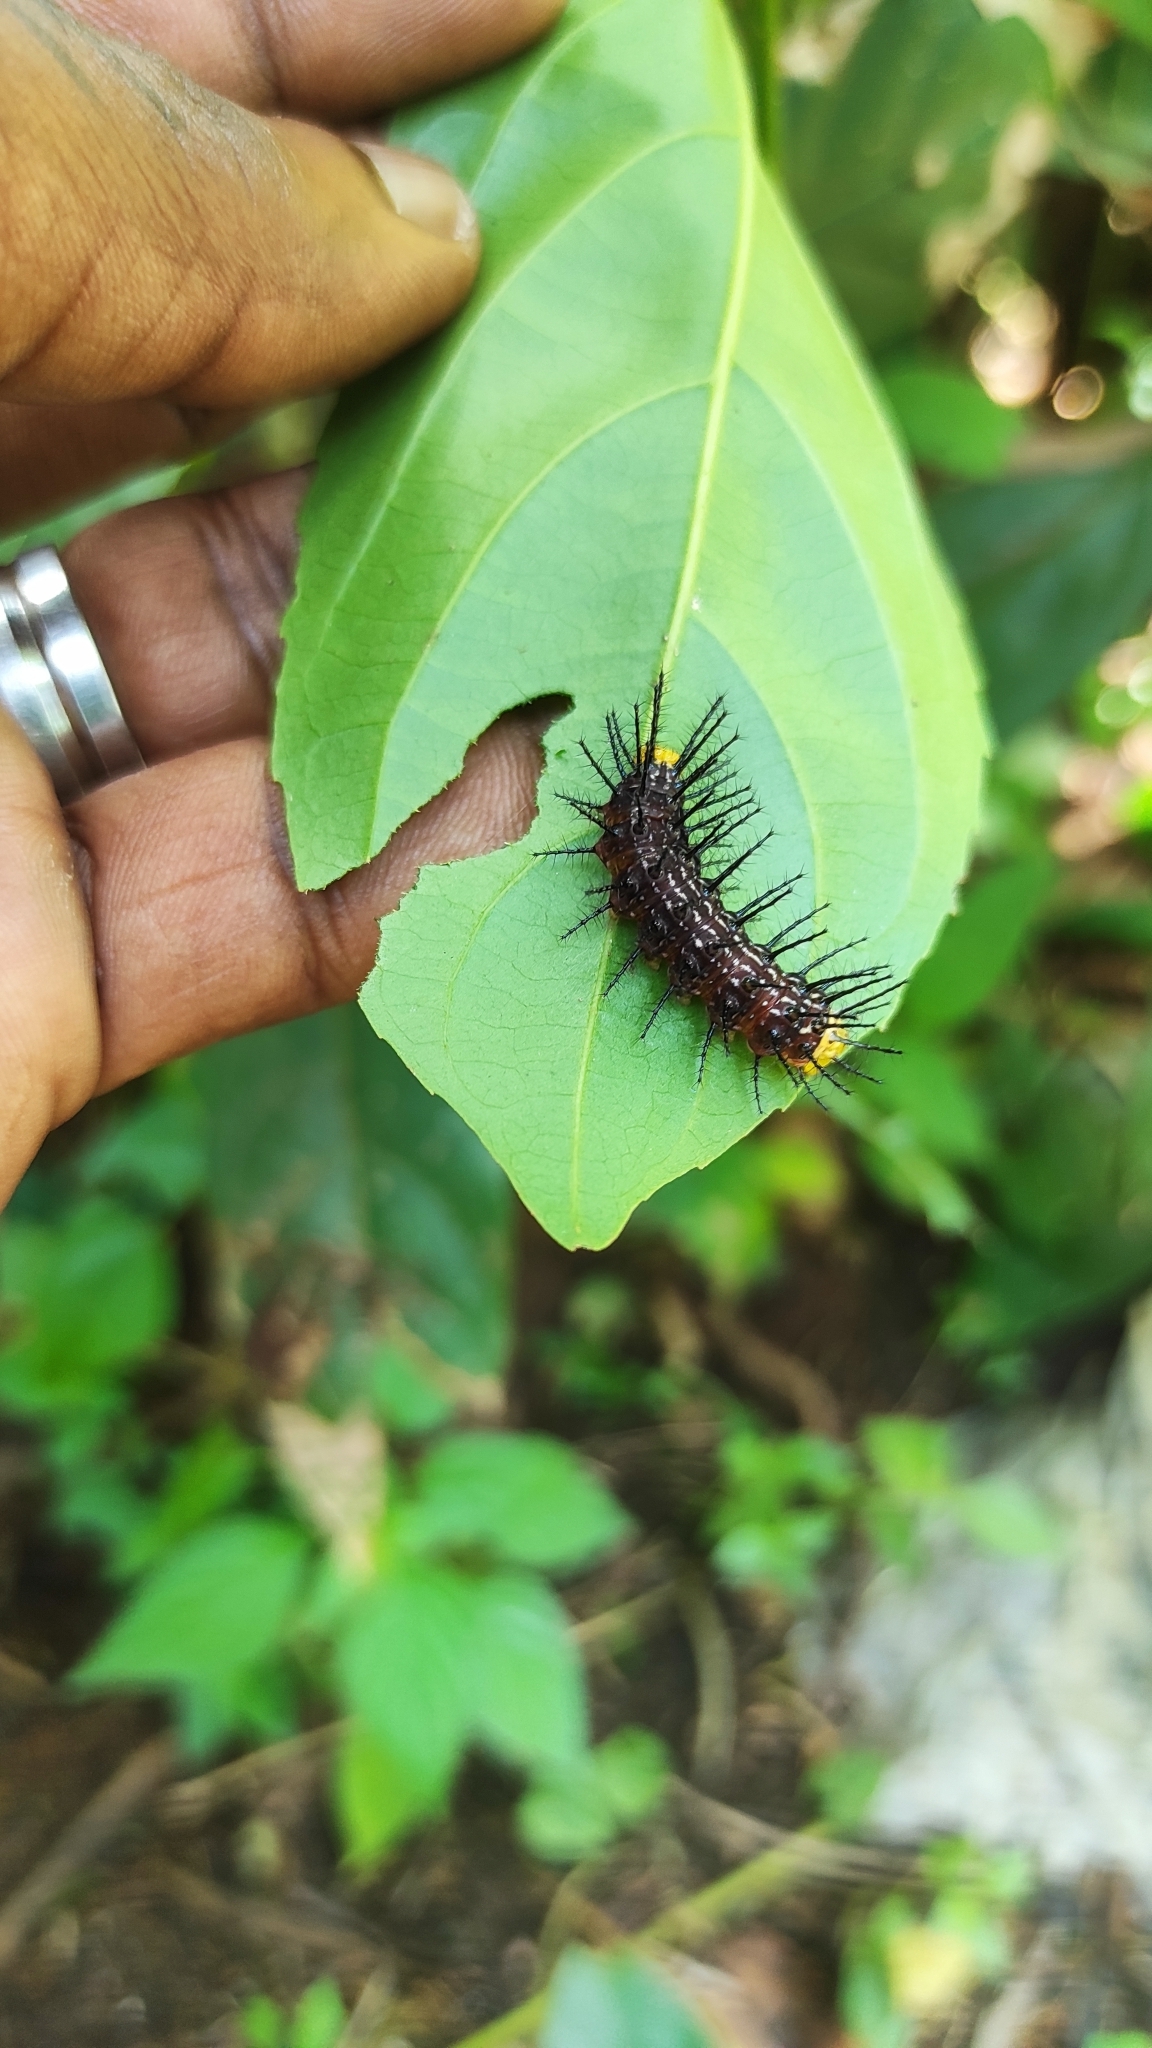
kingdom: Animalia
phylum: Arthropoda
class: Insecta
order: Lepidoptera
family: Nymphalidae
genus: Cirrochroa
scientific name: Cirrochroa thais
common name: Tamil yeoman
